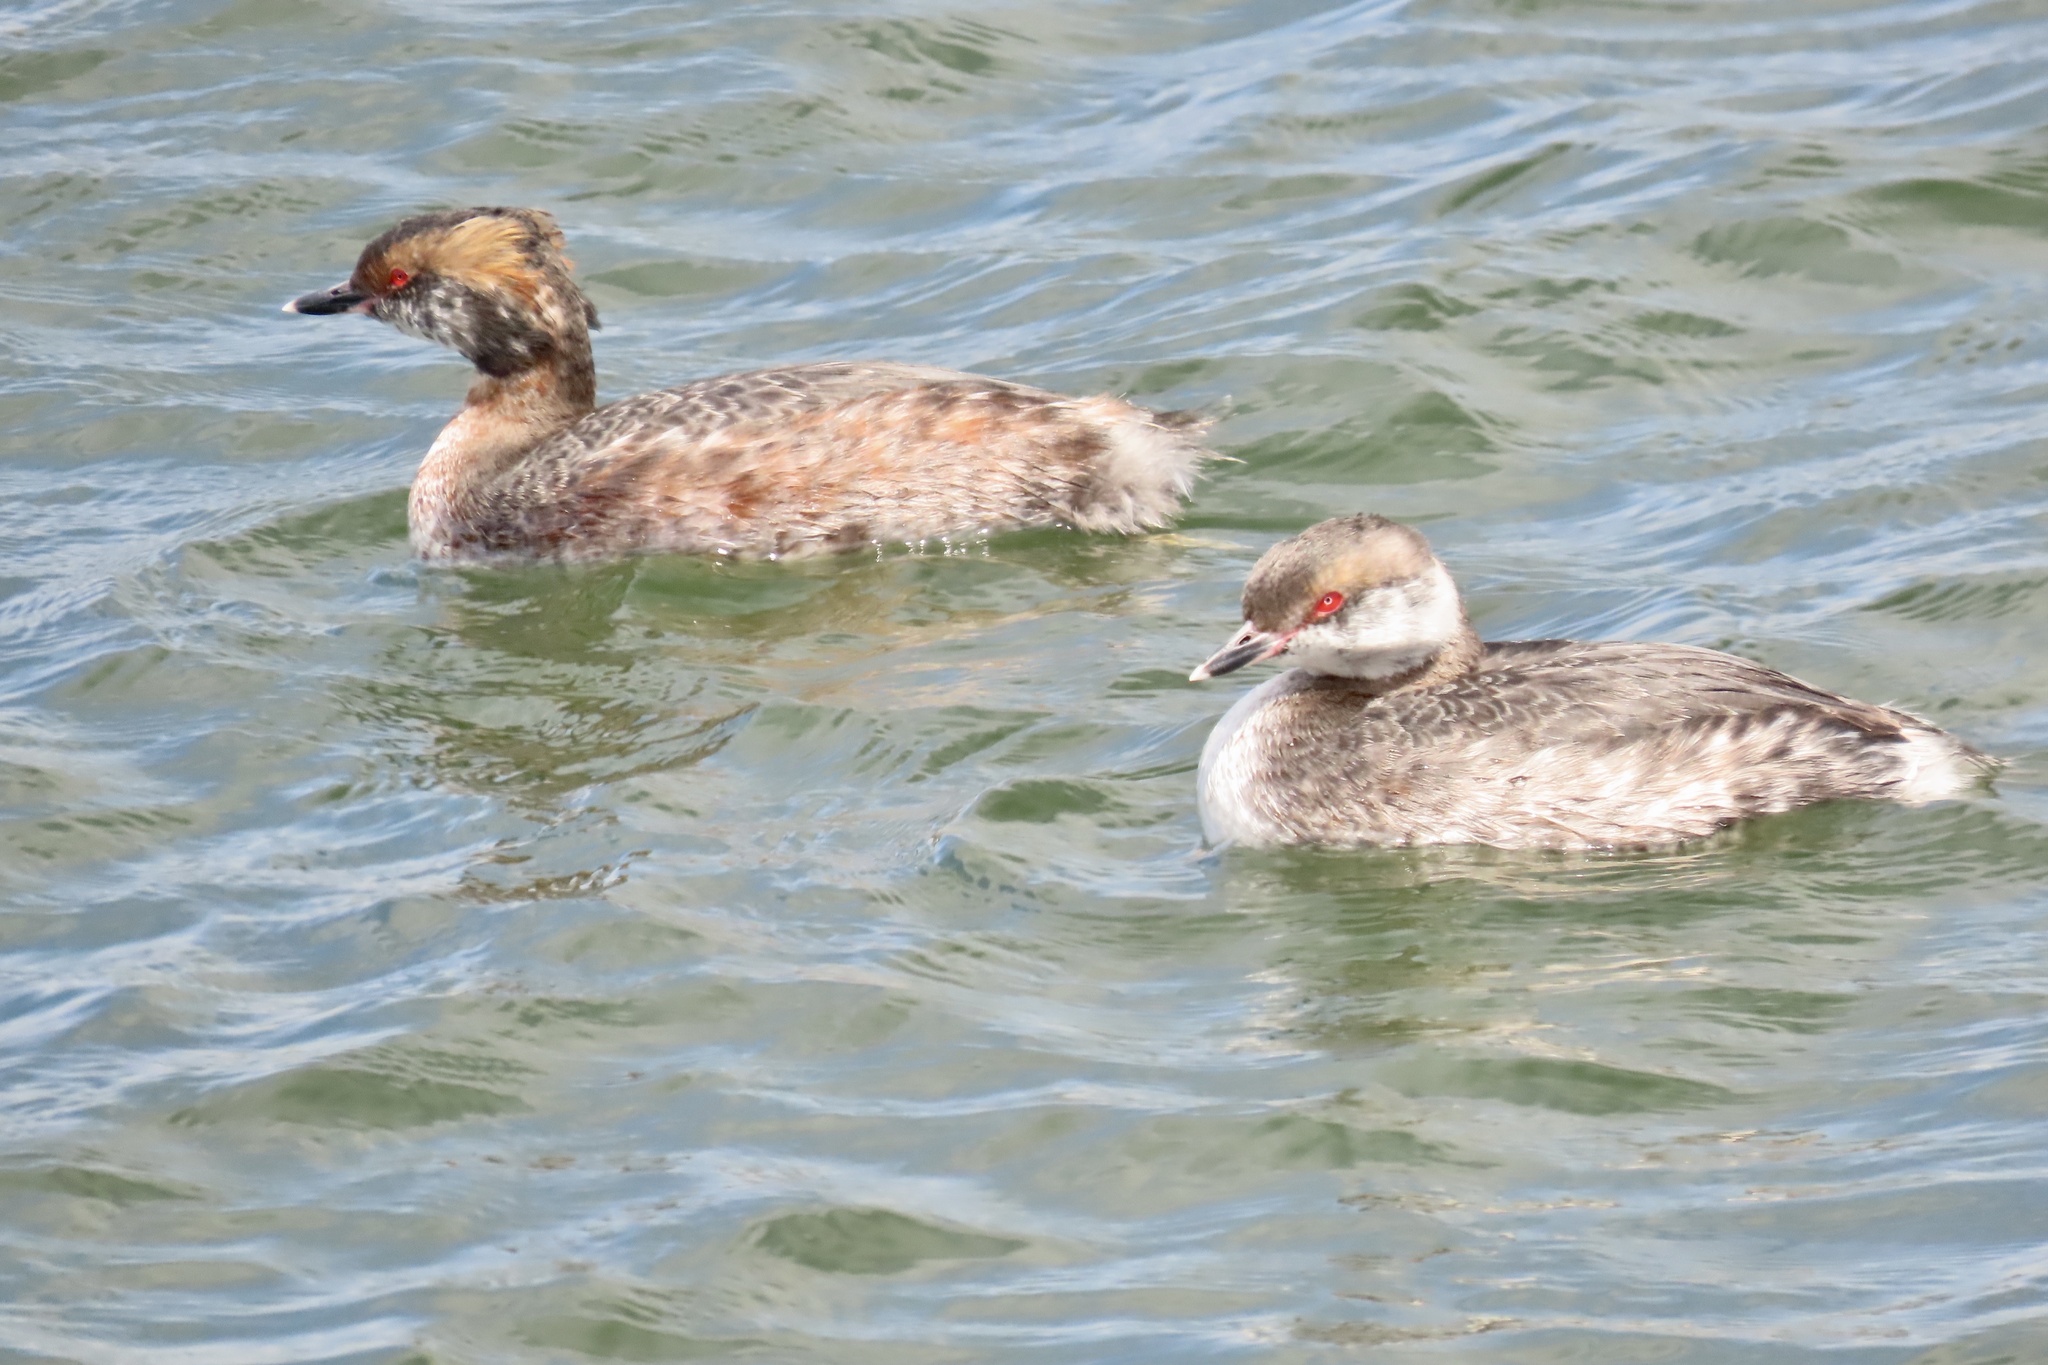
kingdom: Animalia
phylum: Chordata
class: Aves
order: Podicipediformes
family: Podicipedidae
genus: Podiceps
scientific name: Podiceps auritus
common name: Horned grebe
